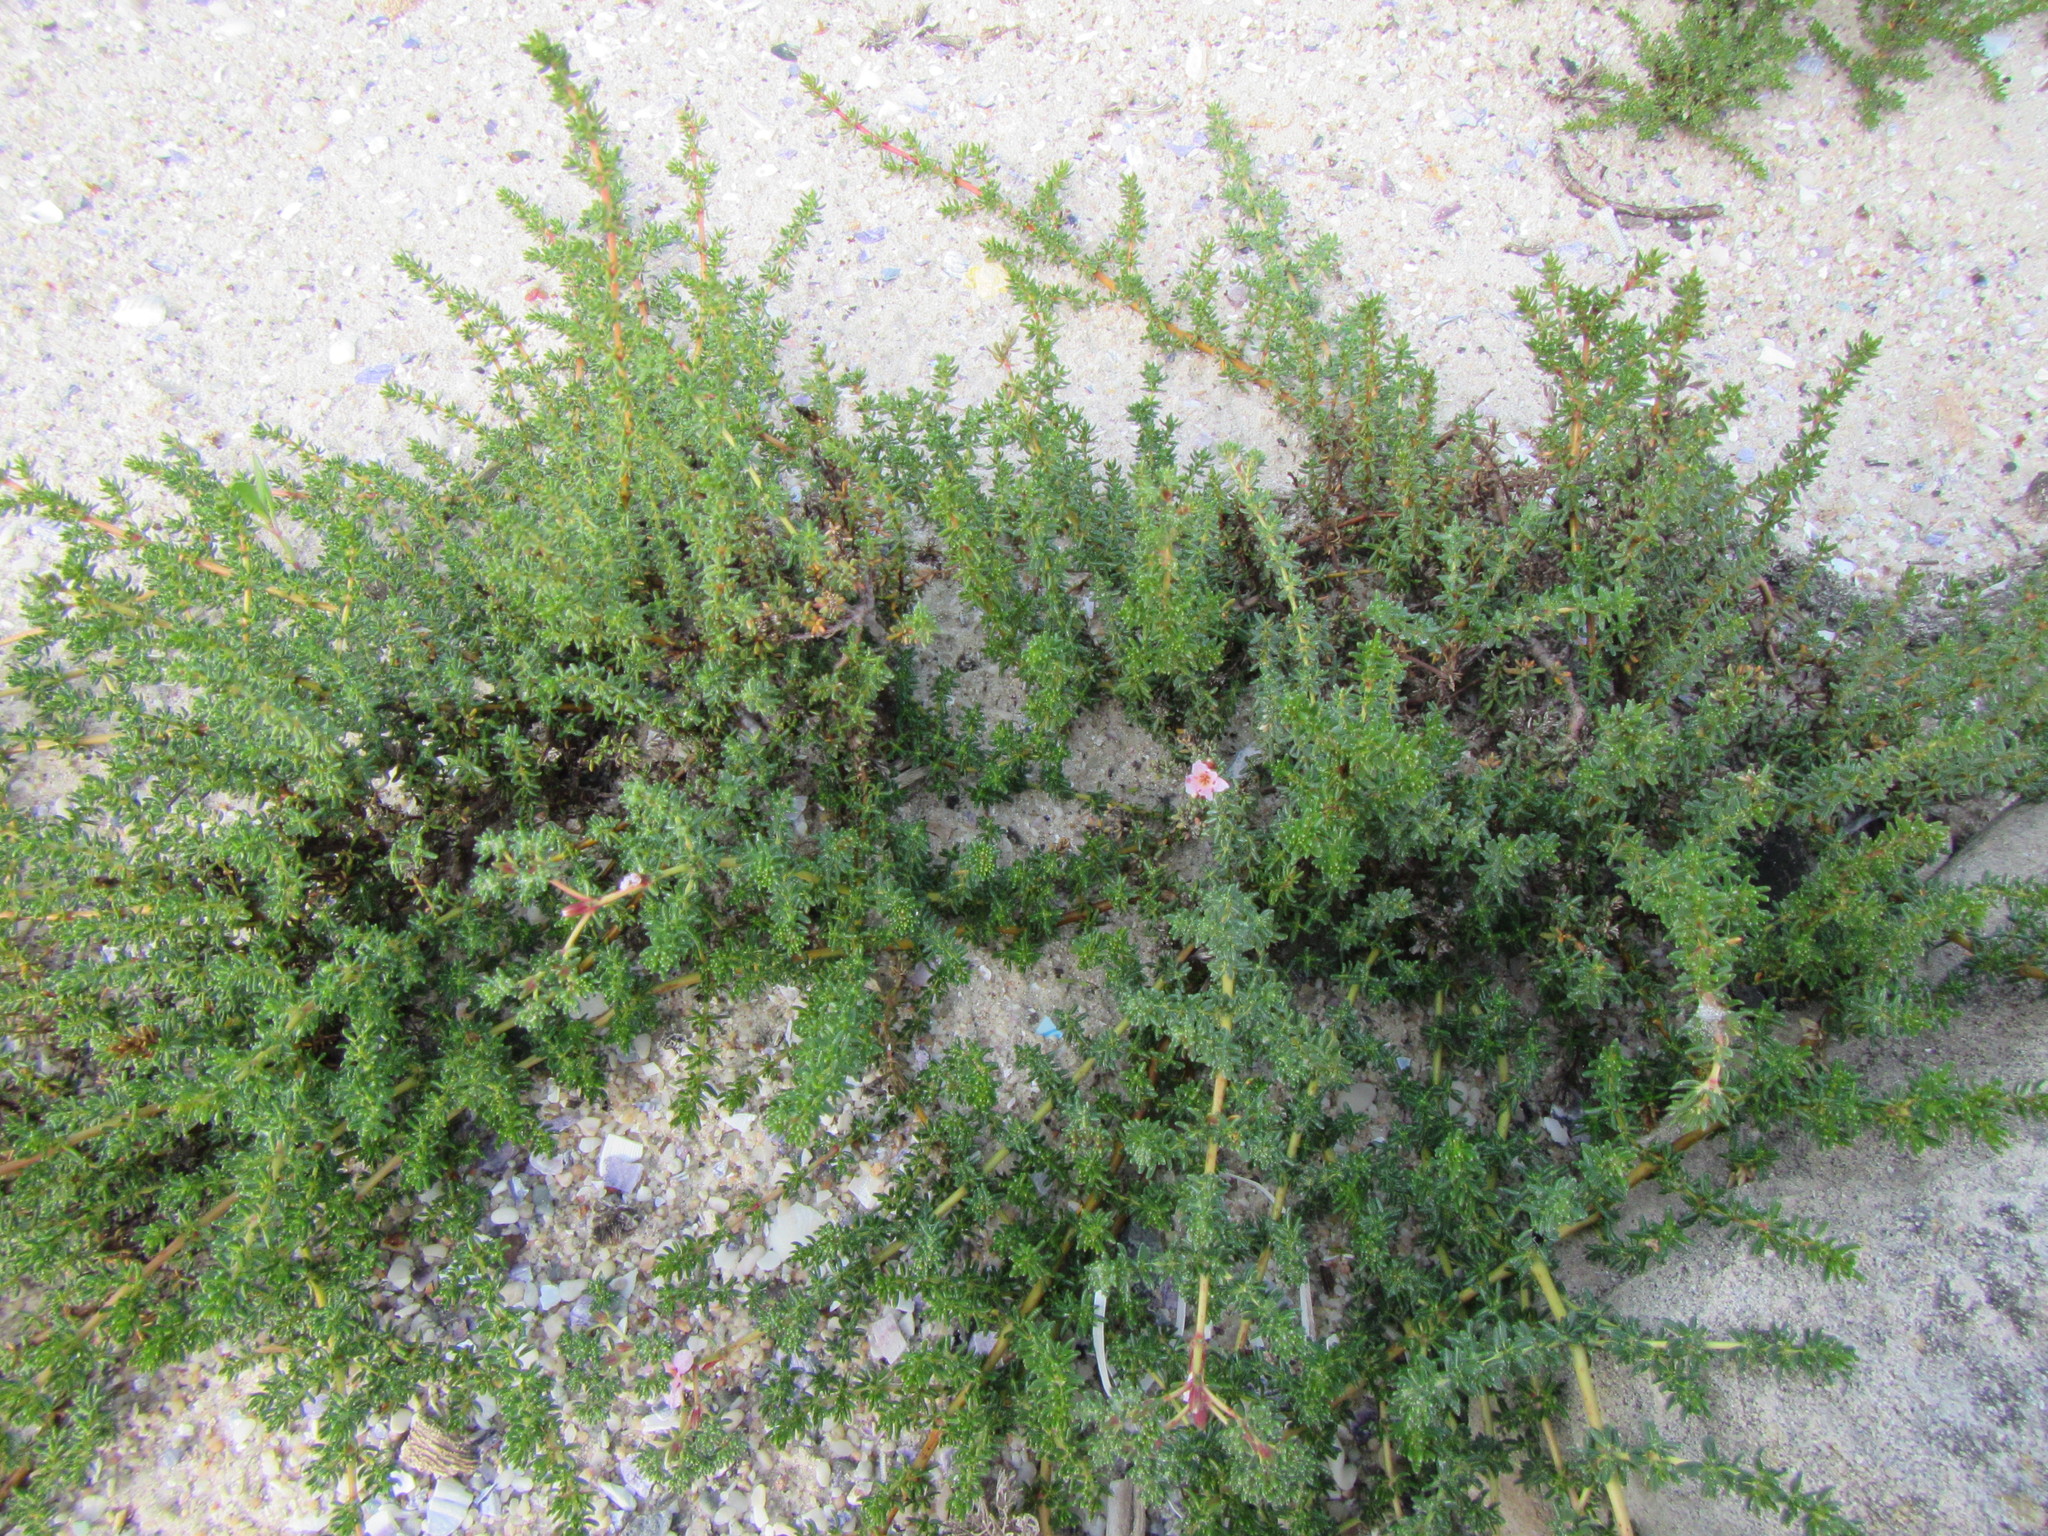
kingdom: Plantae
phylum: Tracheophyta
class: Magnoliopsida
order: Caryophyllales
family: Frankeniaceae
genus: Frankenia
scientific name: Frankenia repens
